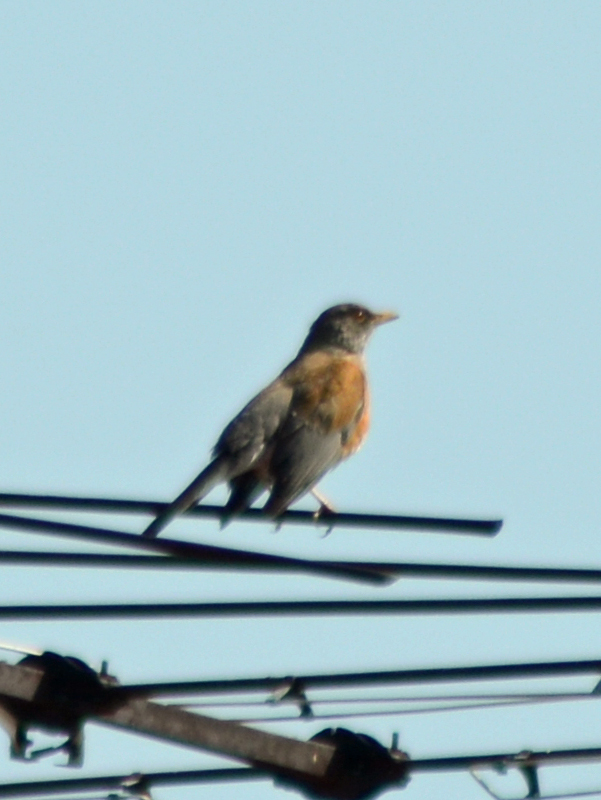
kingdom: Animalia
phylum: Chordata
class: Aves
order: Passeriformes
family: Turdidae
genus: Turdus
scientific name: Turdus rufopalliatus
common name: Rufous-backed robin
